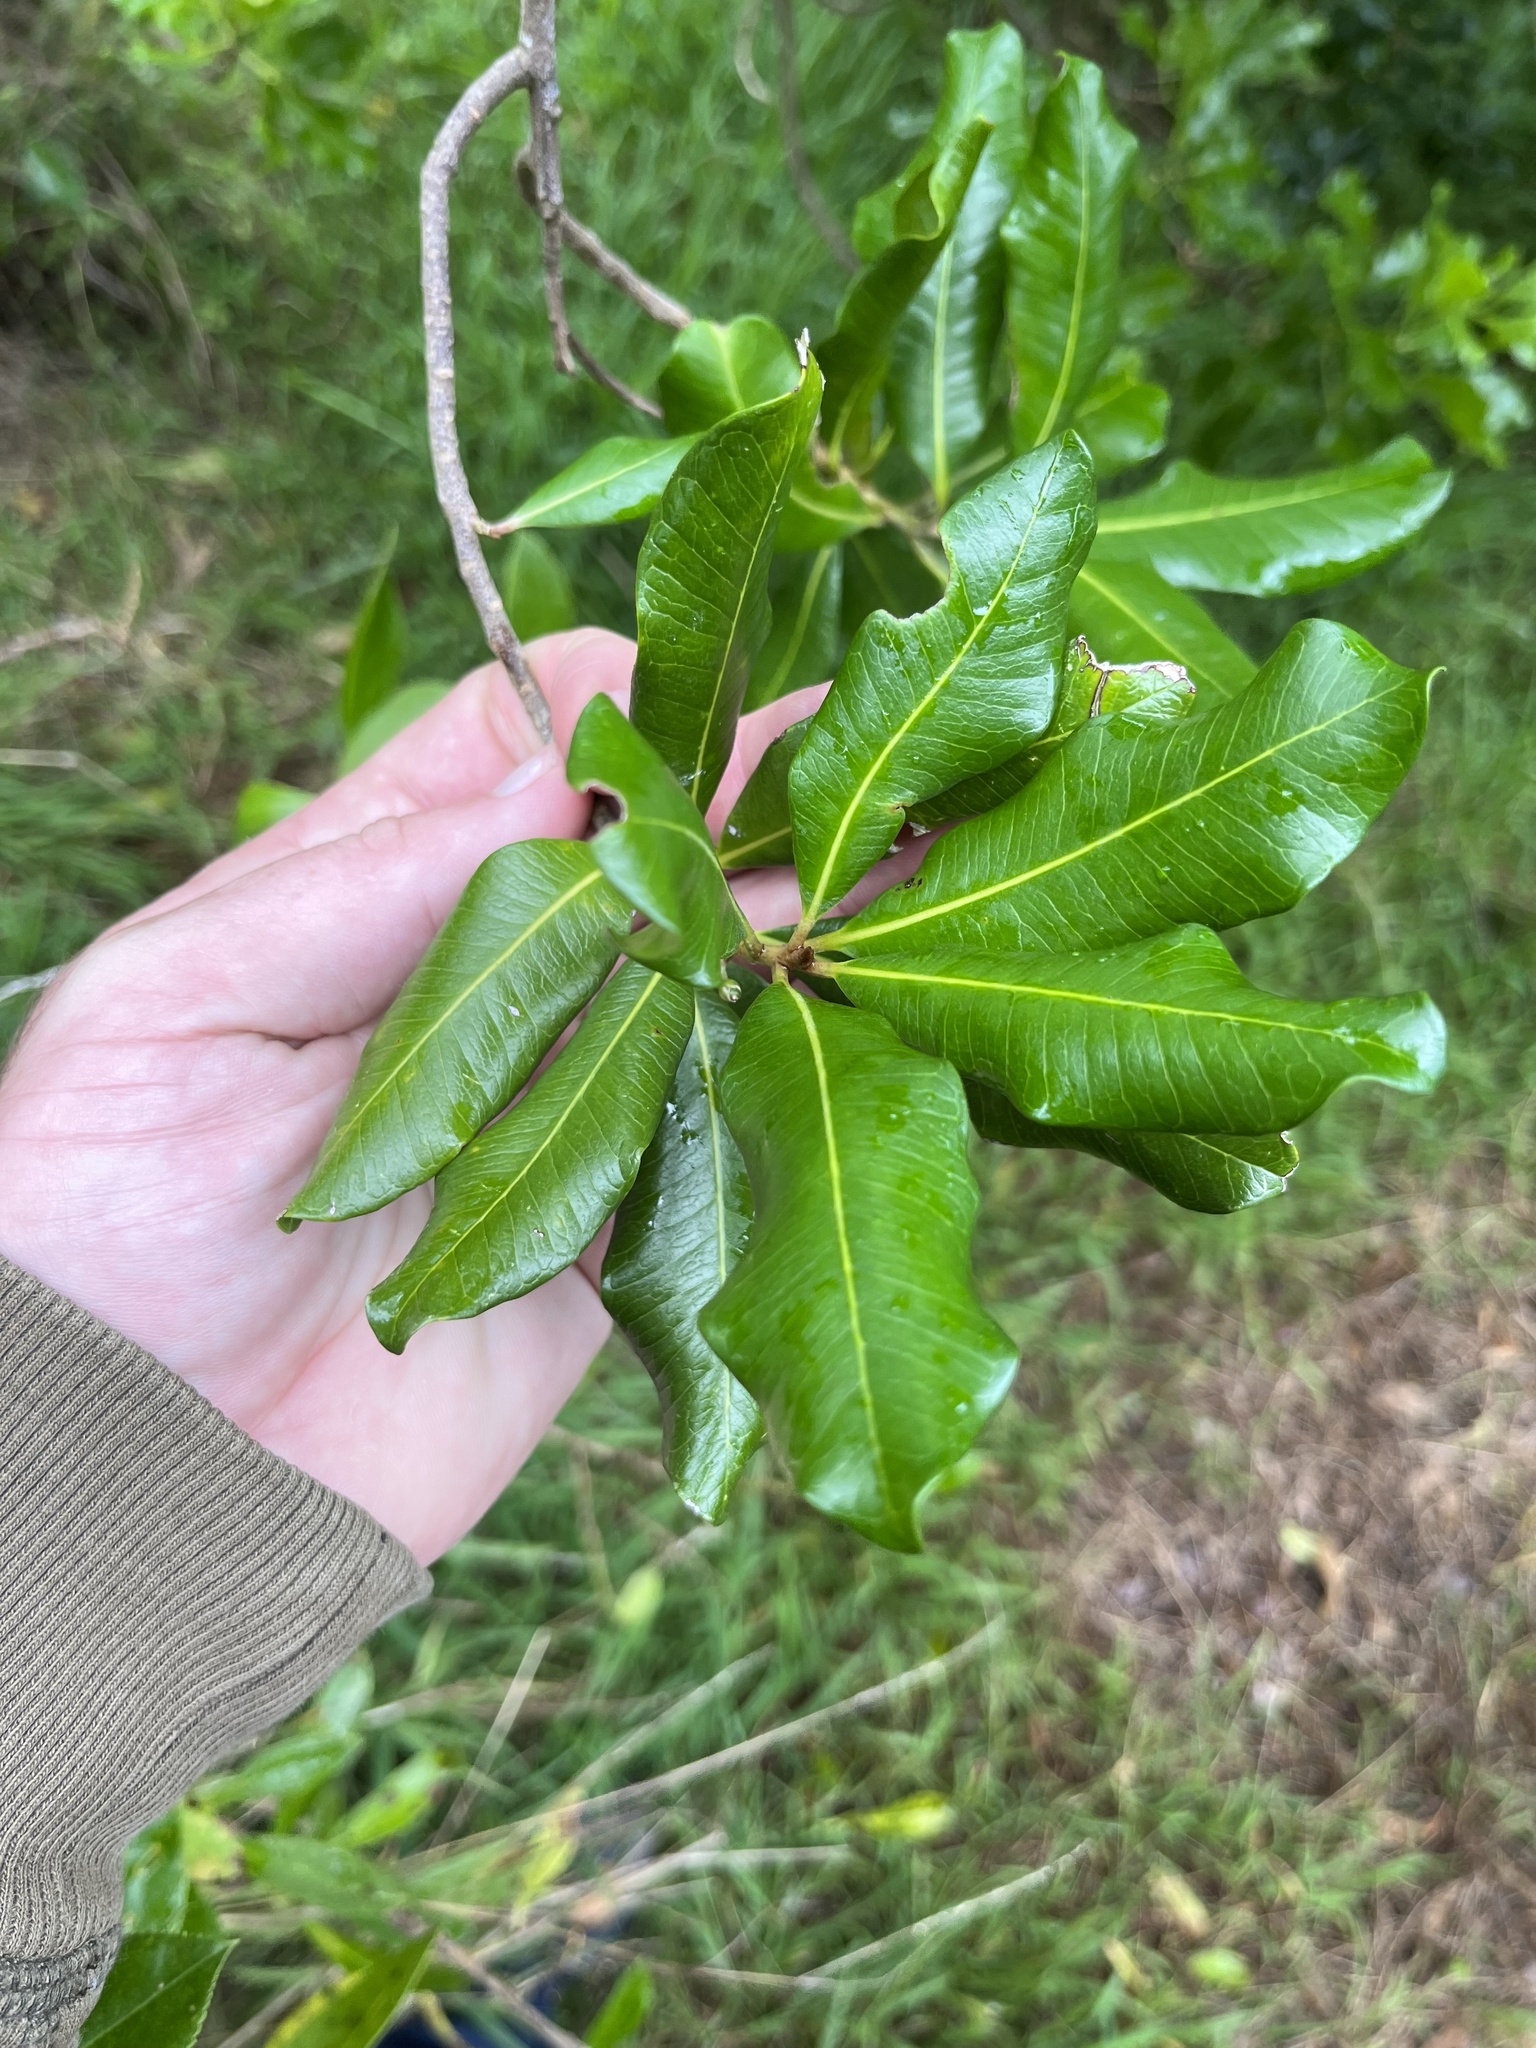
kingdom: Plantae
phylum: Tracheophyta
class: Magnoliopsida
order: Ericales
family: Sapotaceae
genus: Planchonella
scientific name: Planchonella costata
